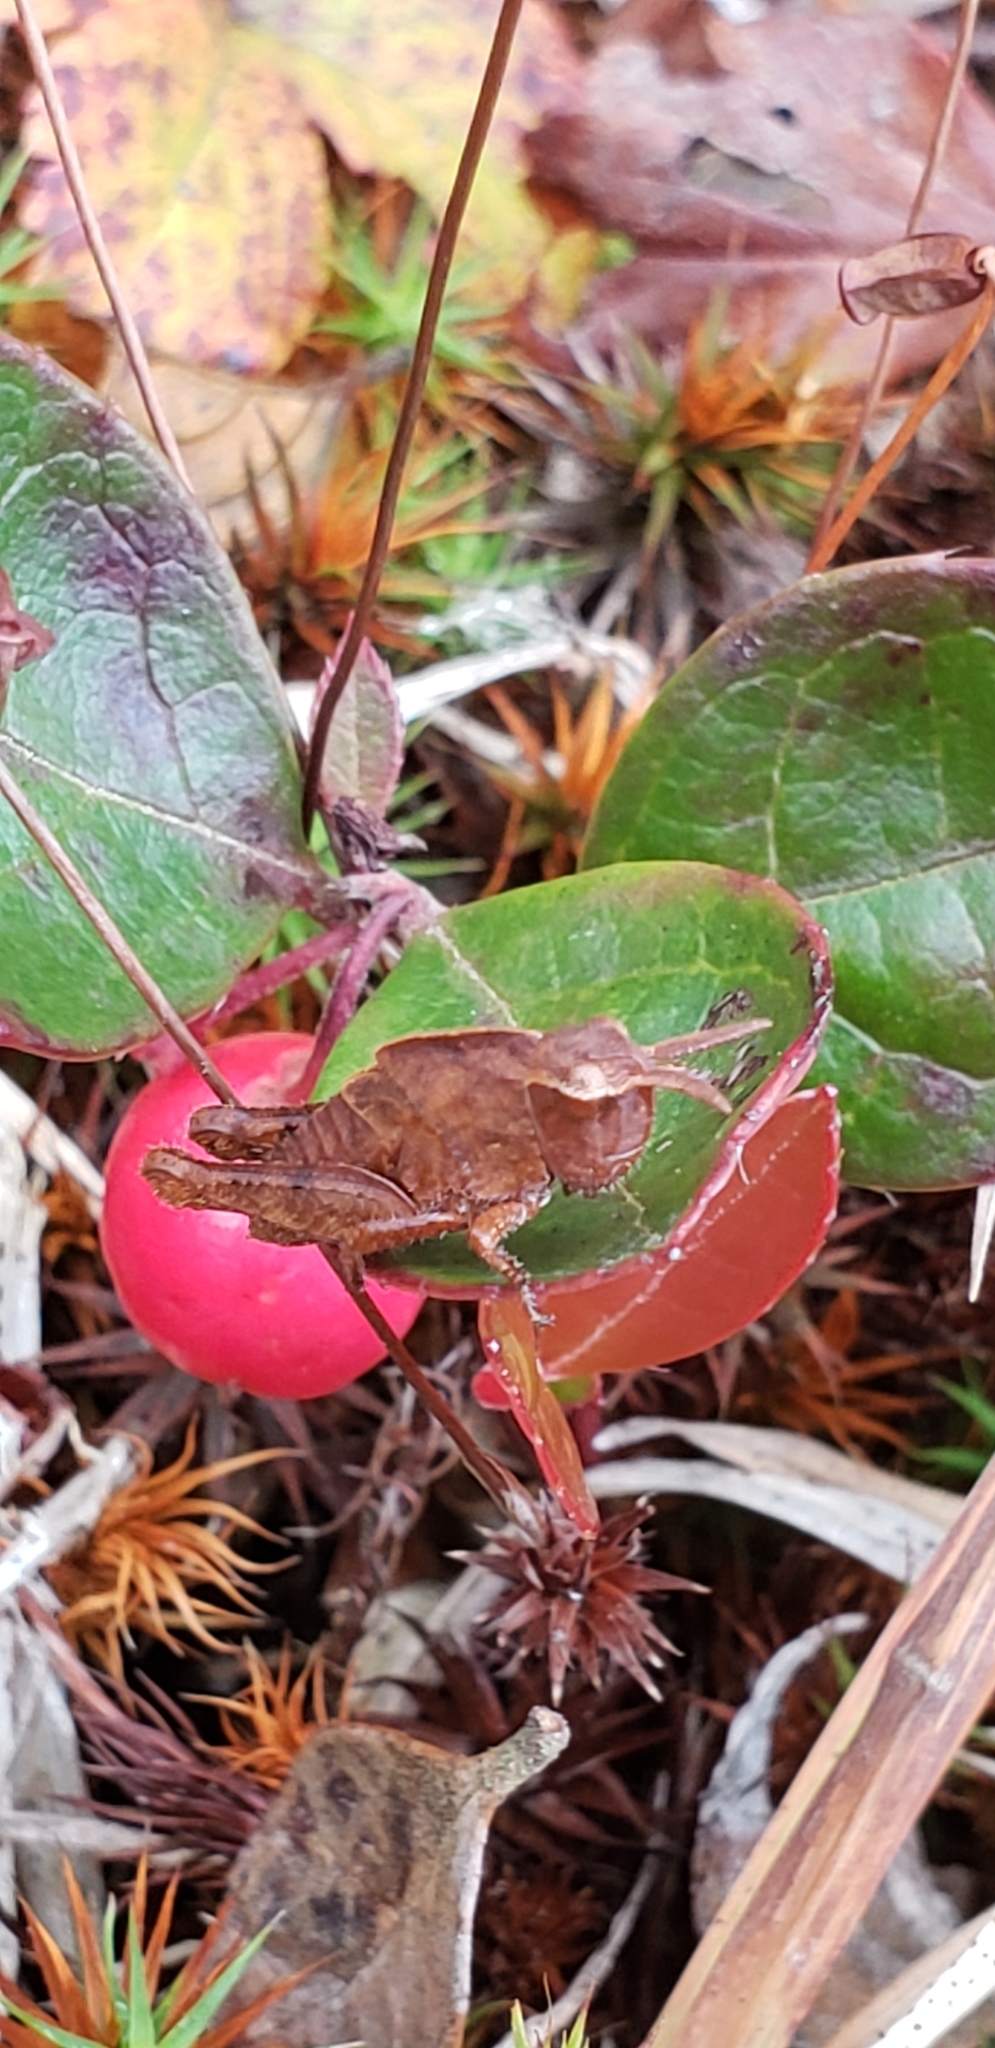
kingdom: Animalia
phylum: Arthropoda
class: Insecta
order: Orthoptera
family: Acrididae
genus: Chortophaga
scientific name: Chortophaga viridifasciata
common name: Green-striped grasshopper
